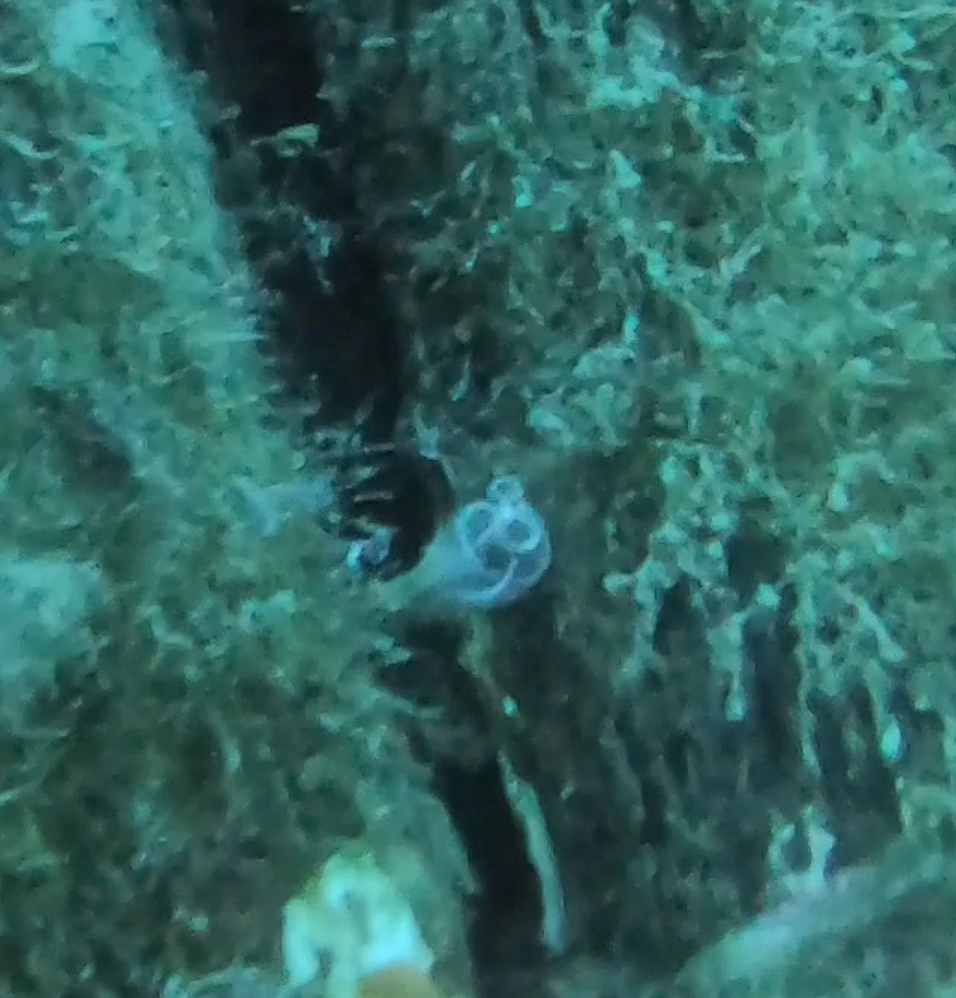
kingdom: Animalia
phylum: Chordata
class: Ascidiacea
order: Aplousobranchia
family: Clavelinidae
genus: Clavelina
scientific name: Clavelina lepadiformis
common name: Light bulb tunicate
